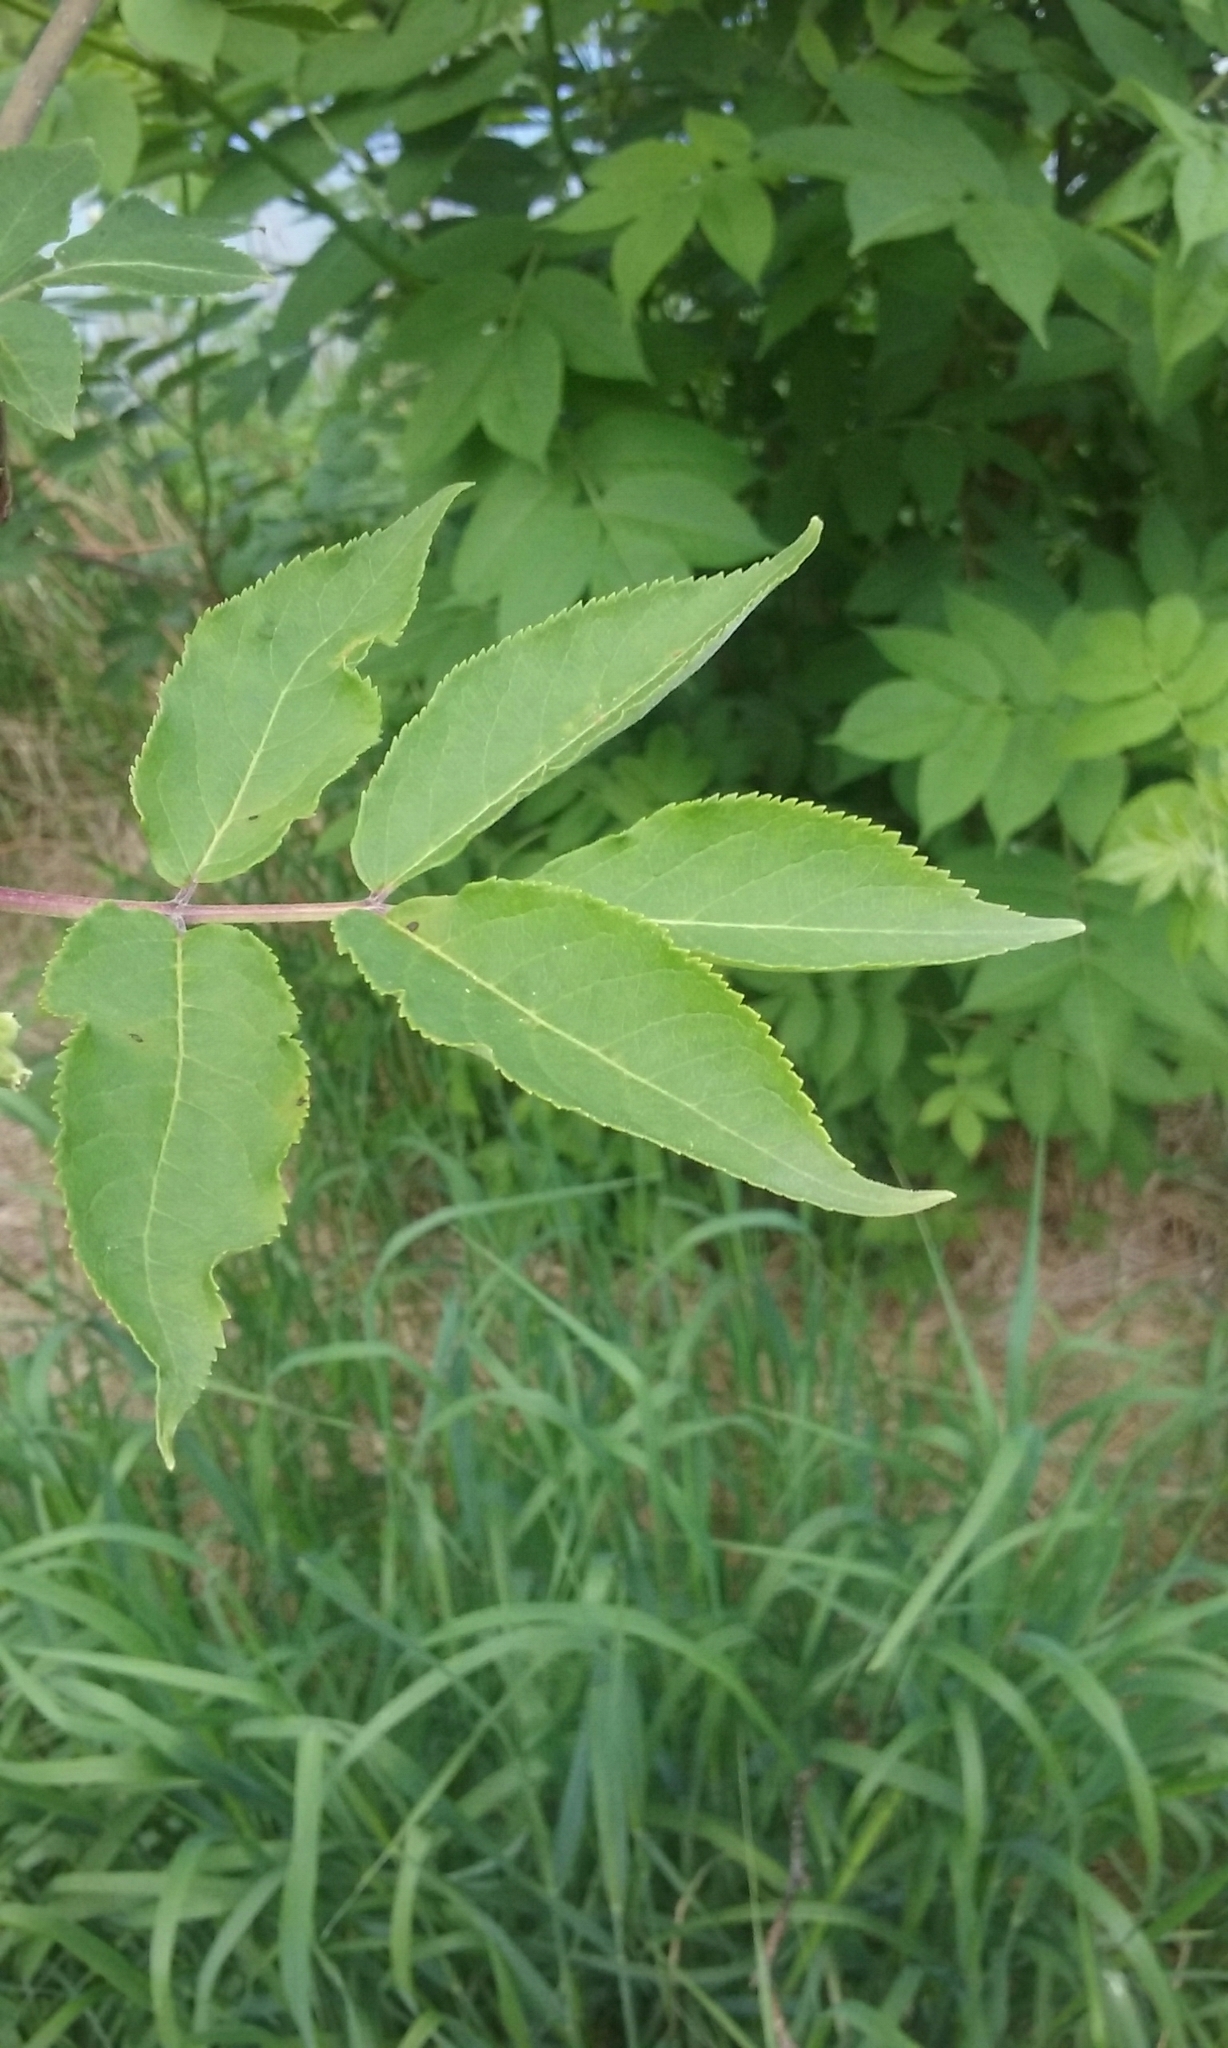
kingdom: Plantae
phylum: Tracheophyta
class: Magnoliopsida
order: Dipsacales
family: Viburnaceae
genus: Sambucus
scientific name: Sambucus racemosa
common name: Red-berried elder
